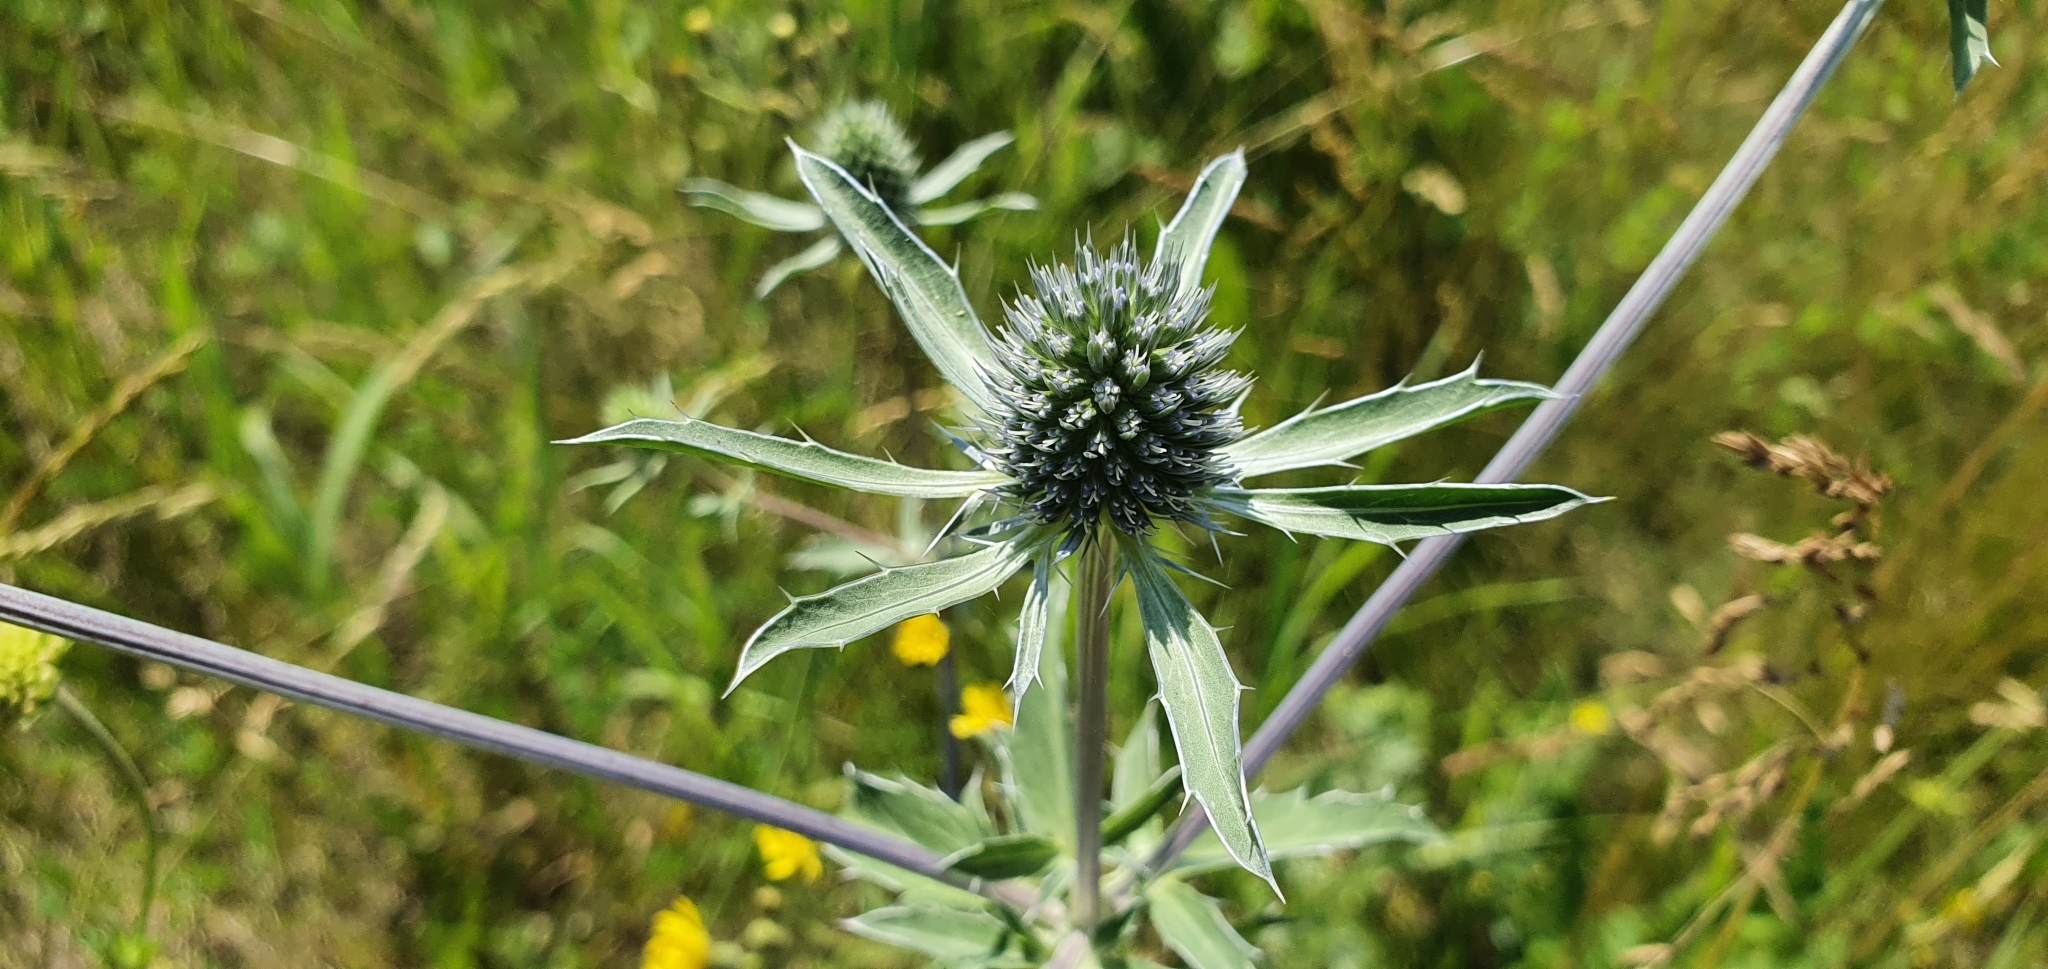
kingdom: Plantae
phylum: Tracheophyta
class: Magnoliopsida
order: Apiales
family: Apiaceae
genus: Eryngium
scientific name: Eryngium planum
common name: Blue eryngo
